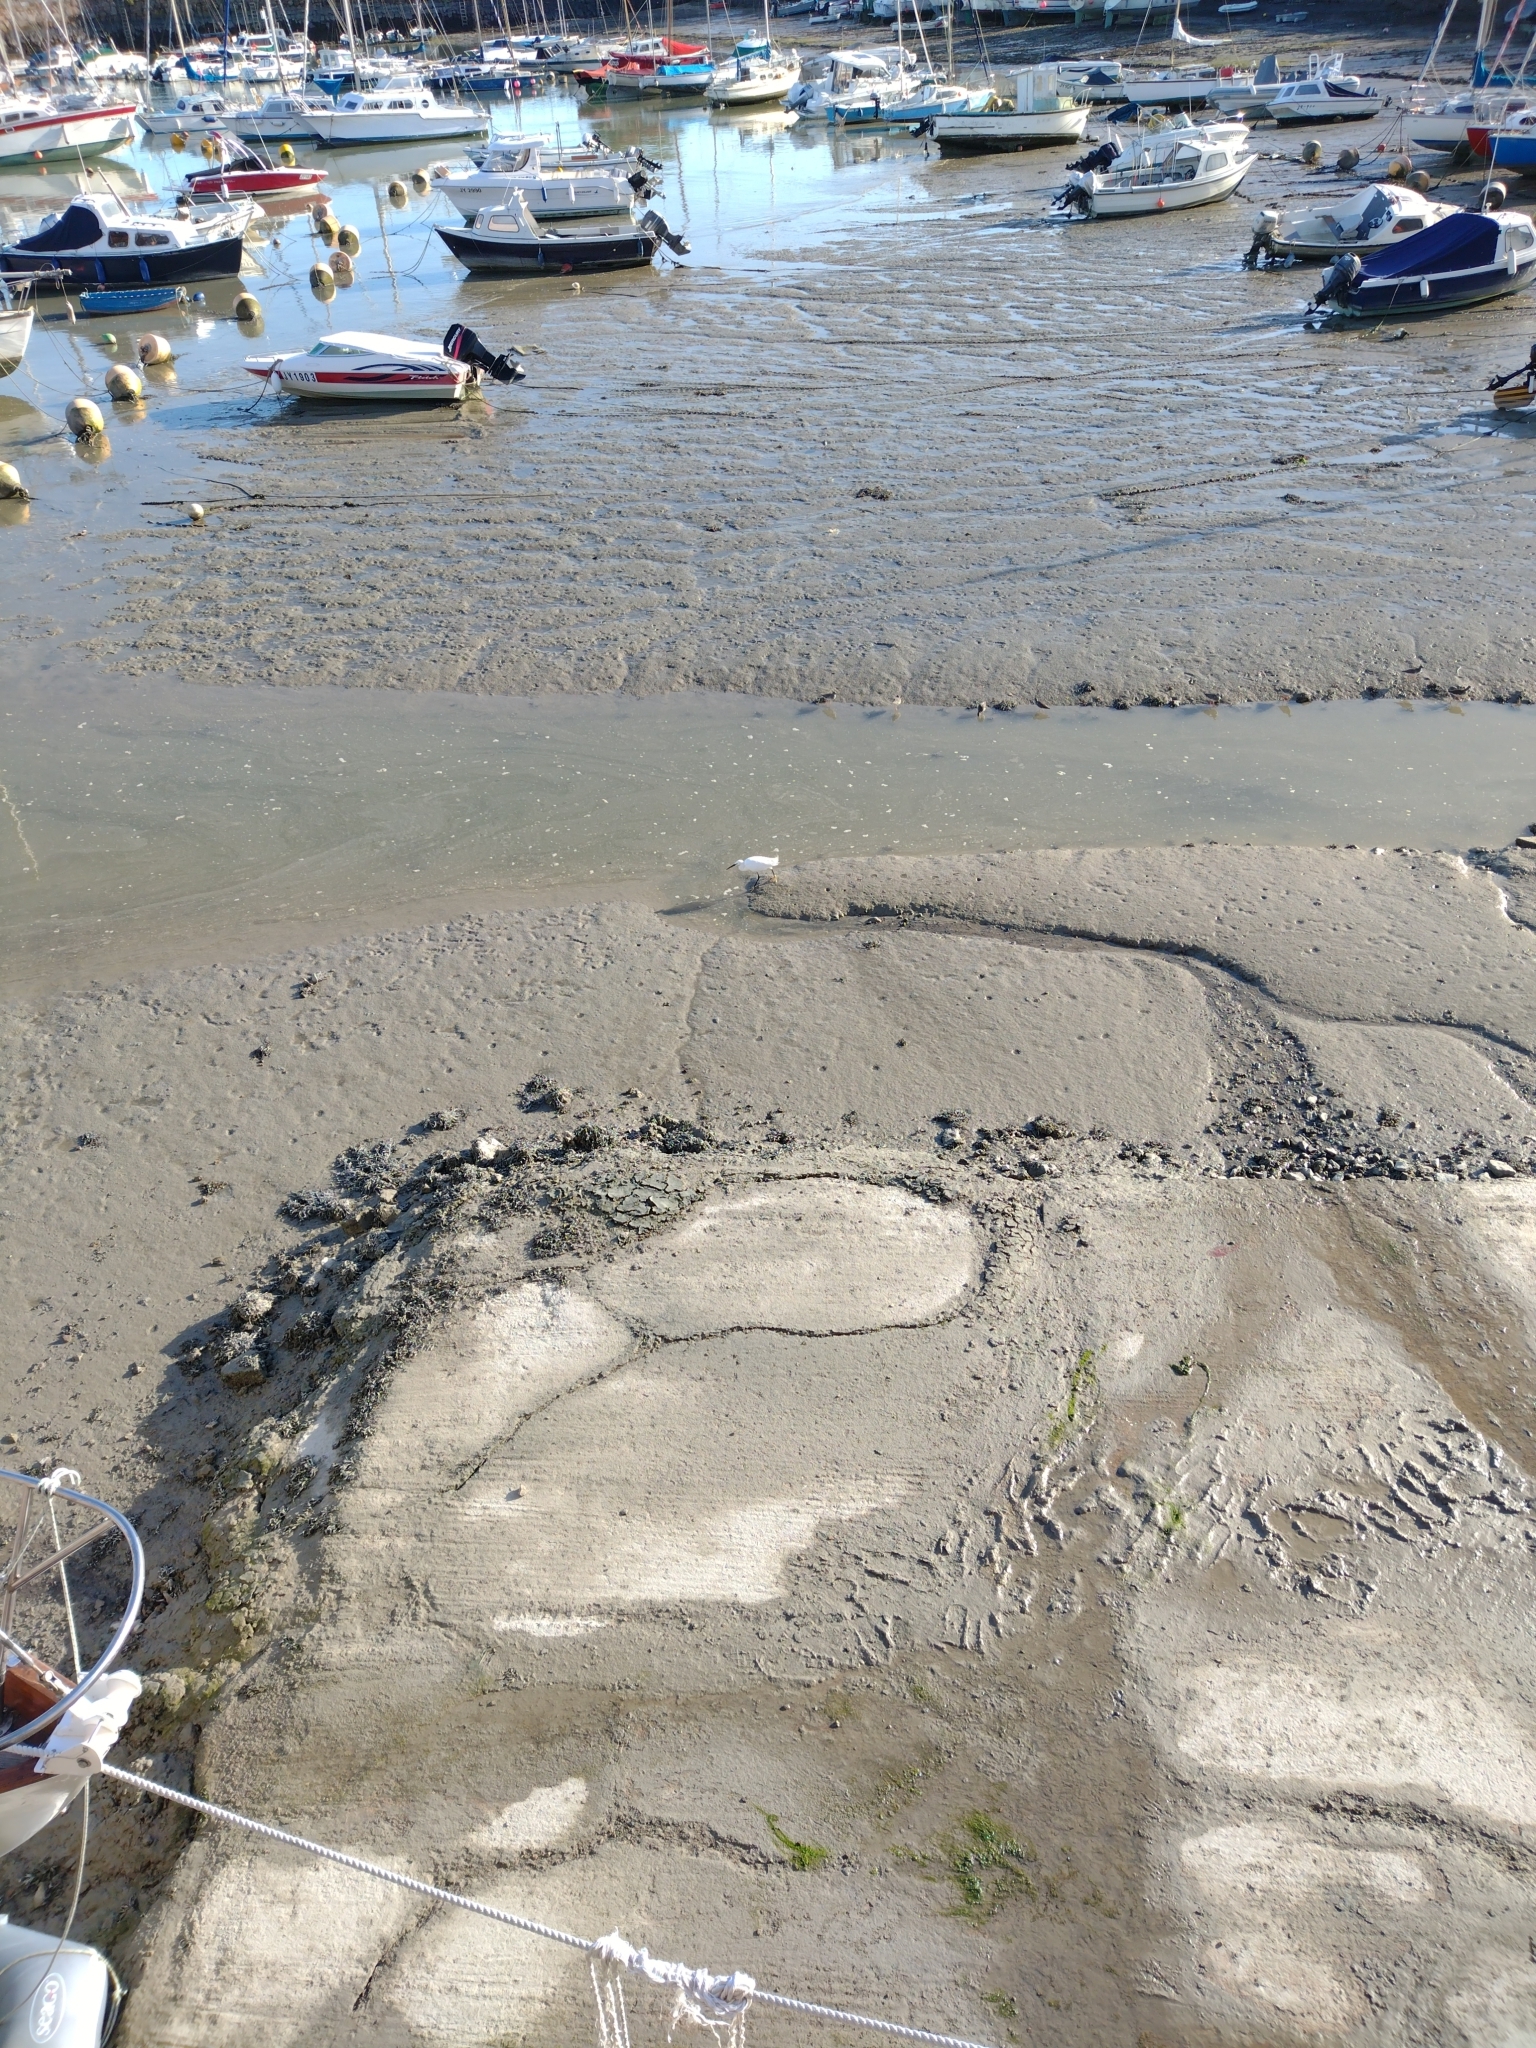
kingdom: Animalia
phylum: Chordata
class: Aves
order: Pelecaniformes
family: Ardeidae
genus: Egretta
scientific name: Egretta garzetta
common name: Little egret
